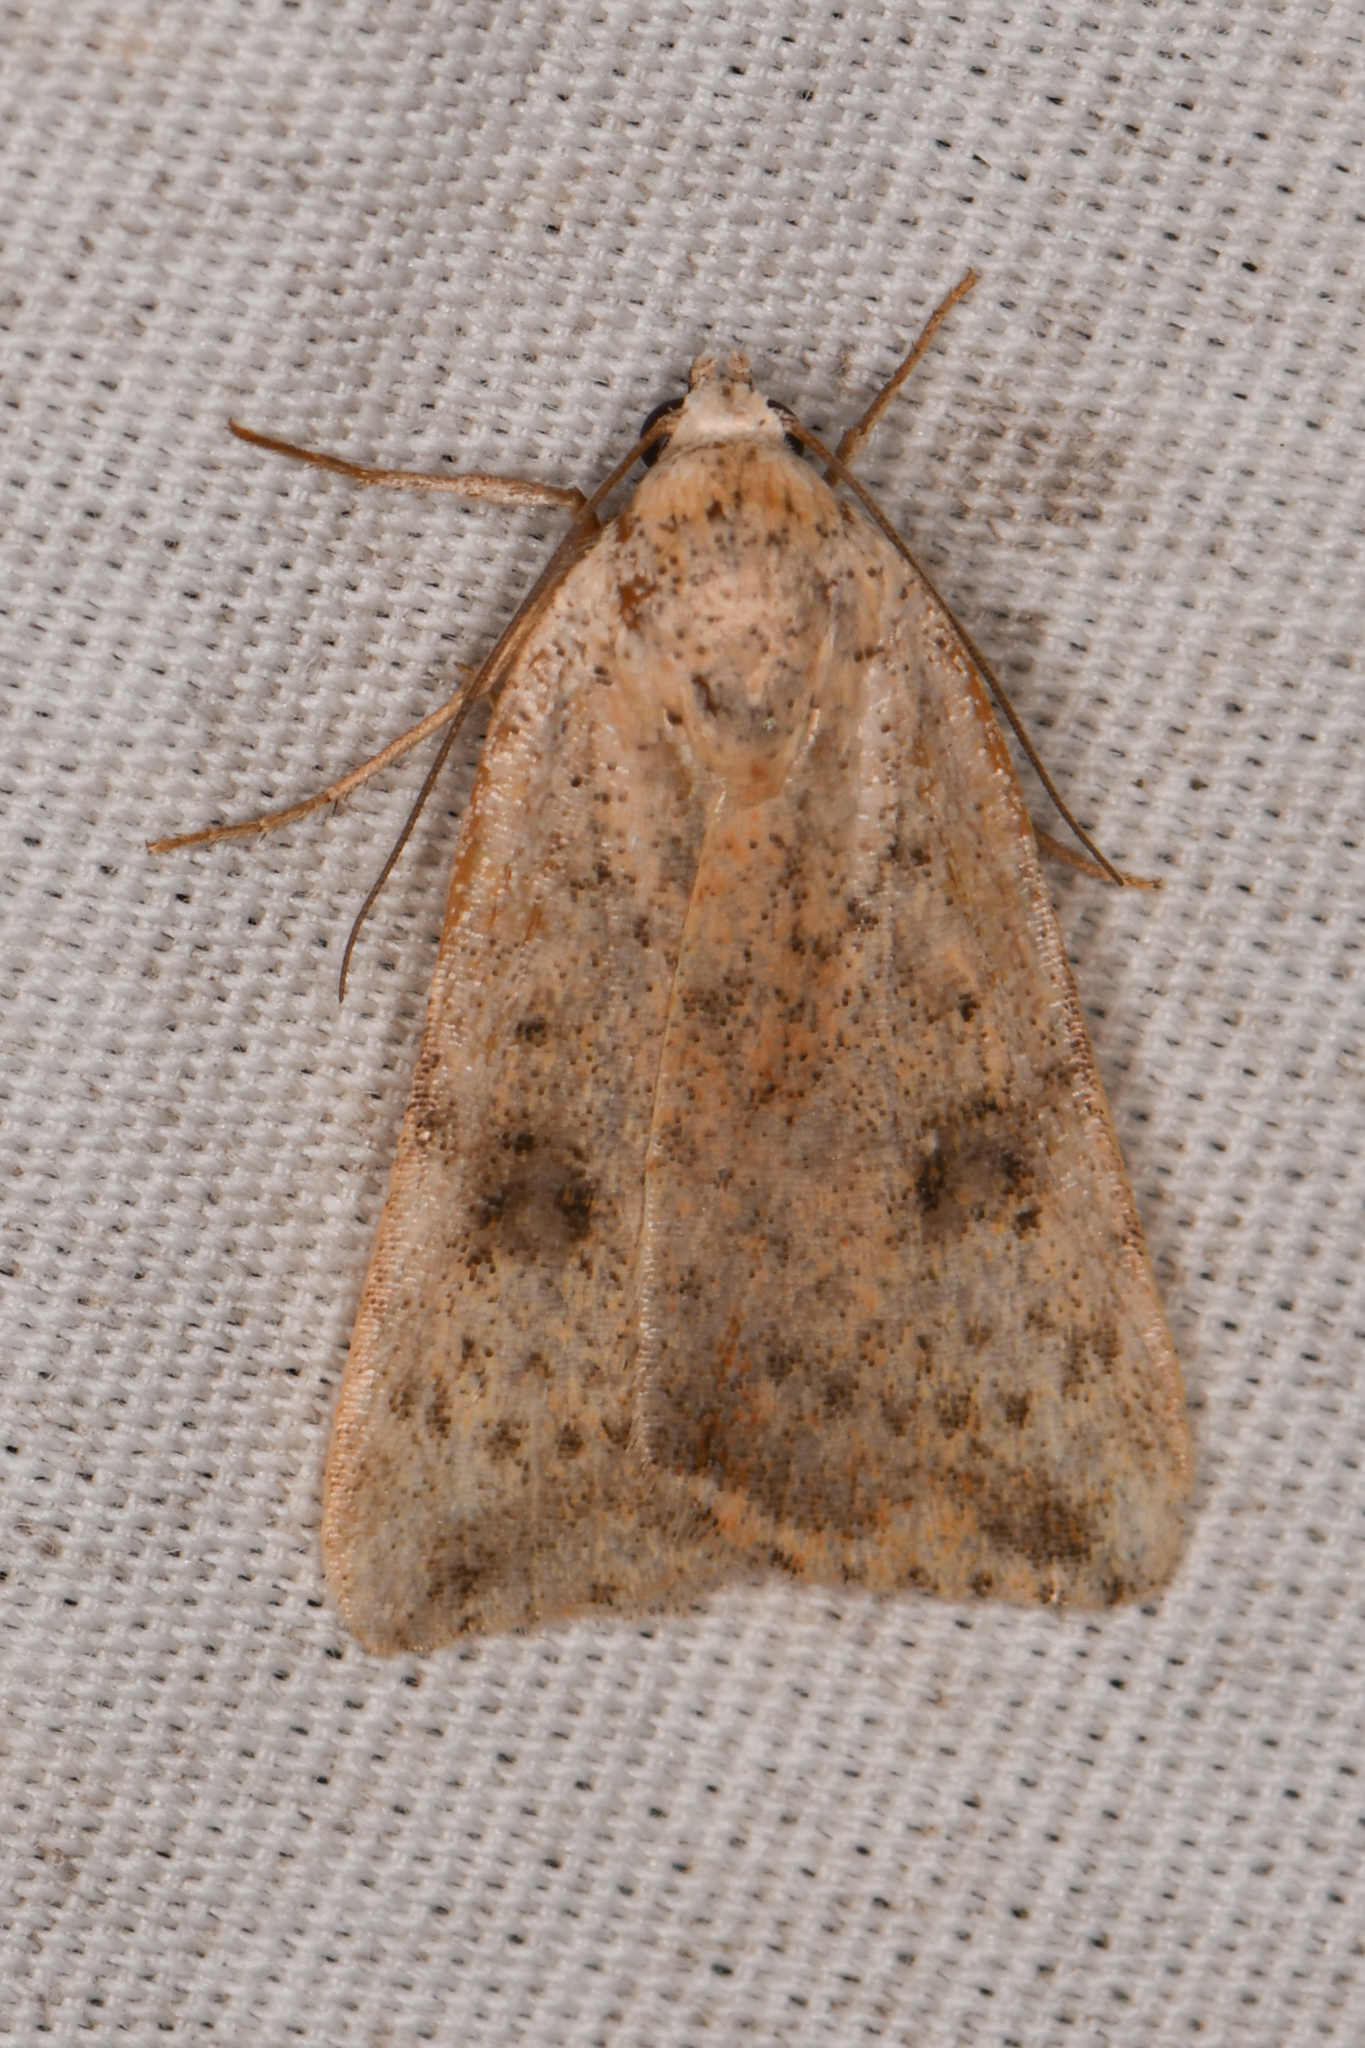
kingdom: Animalia
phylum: Arthropoda
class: Insecta
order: Lepidoptera
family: Noctuidae
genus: Micrathetis
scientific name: Micrathetis triplex
